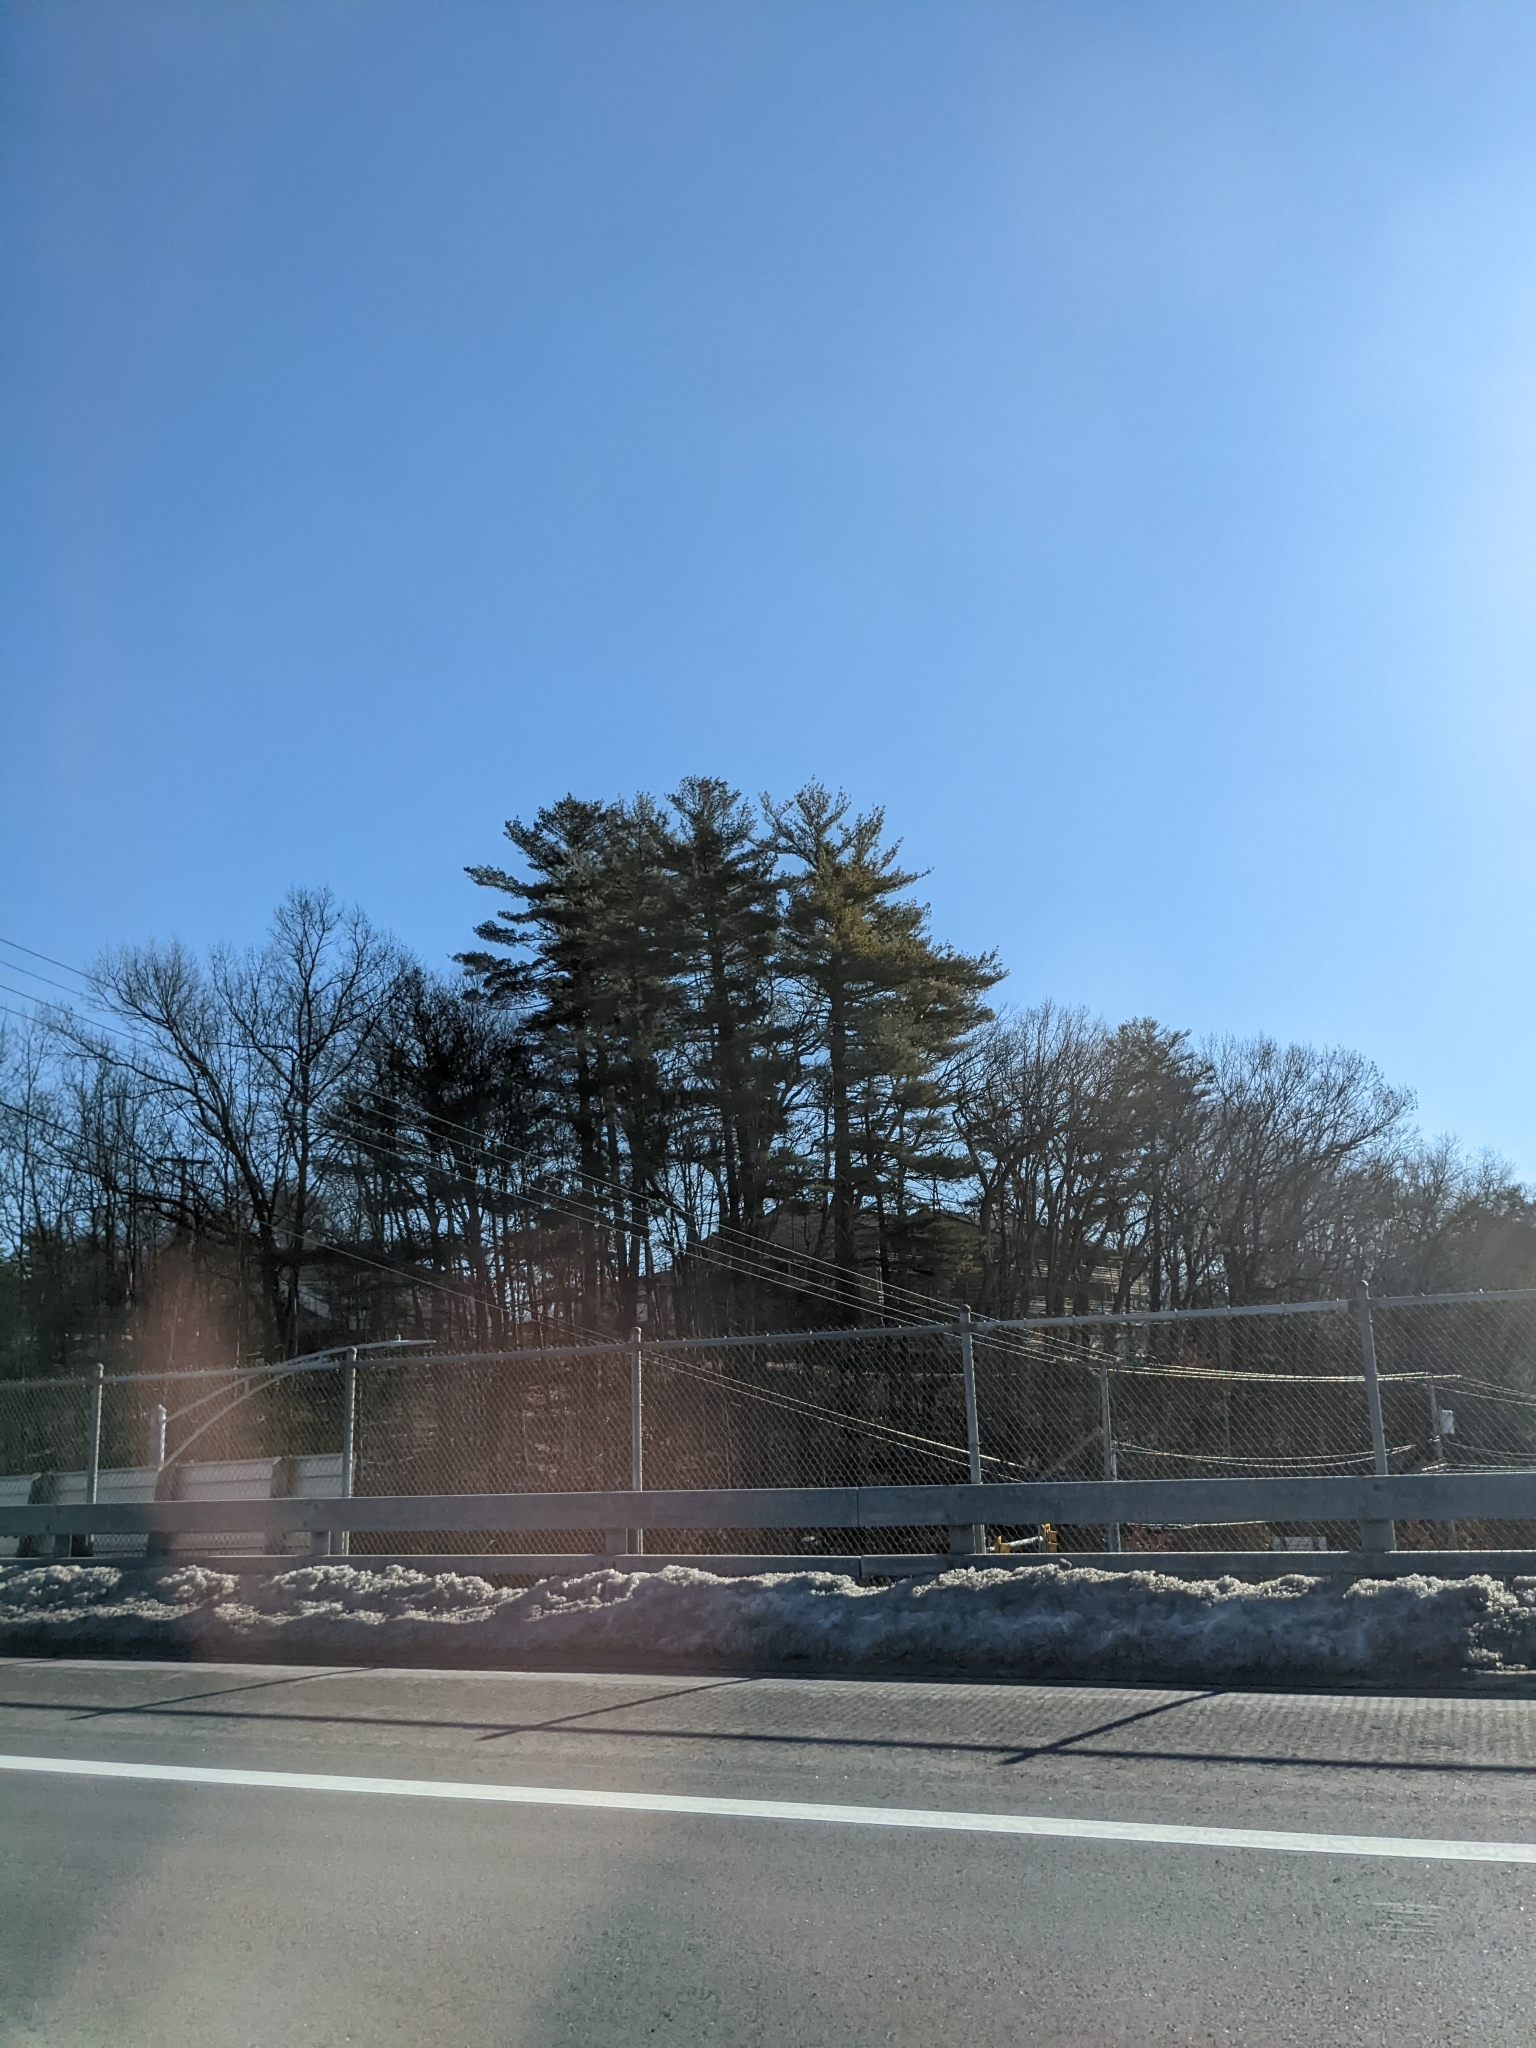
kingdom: Plantae
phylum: Tracheophyta
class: Pinopsida
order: Pinales
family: Pinaceae
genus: Pinus
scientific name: Pinus strobus
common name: Weymouth pine
